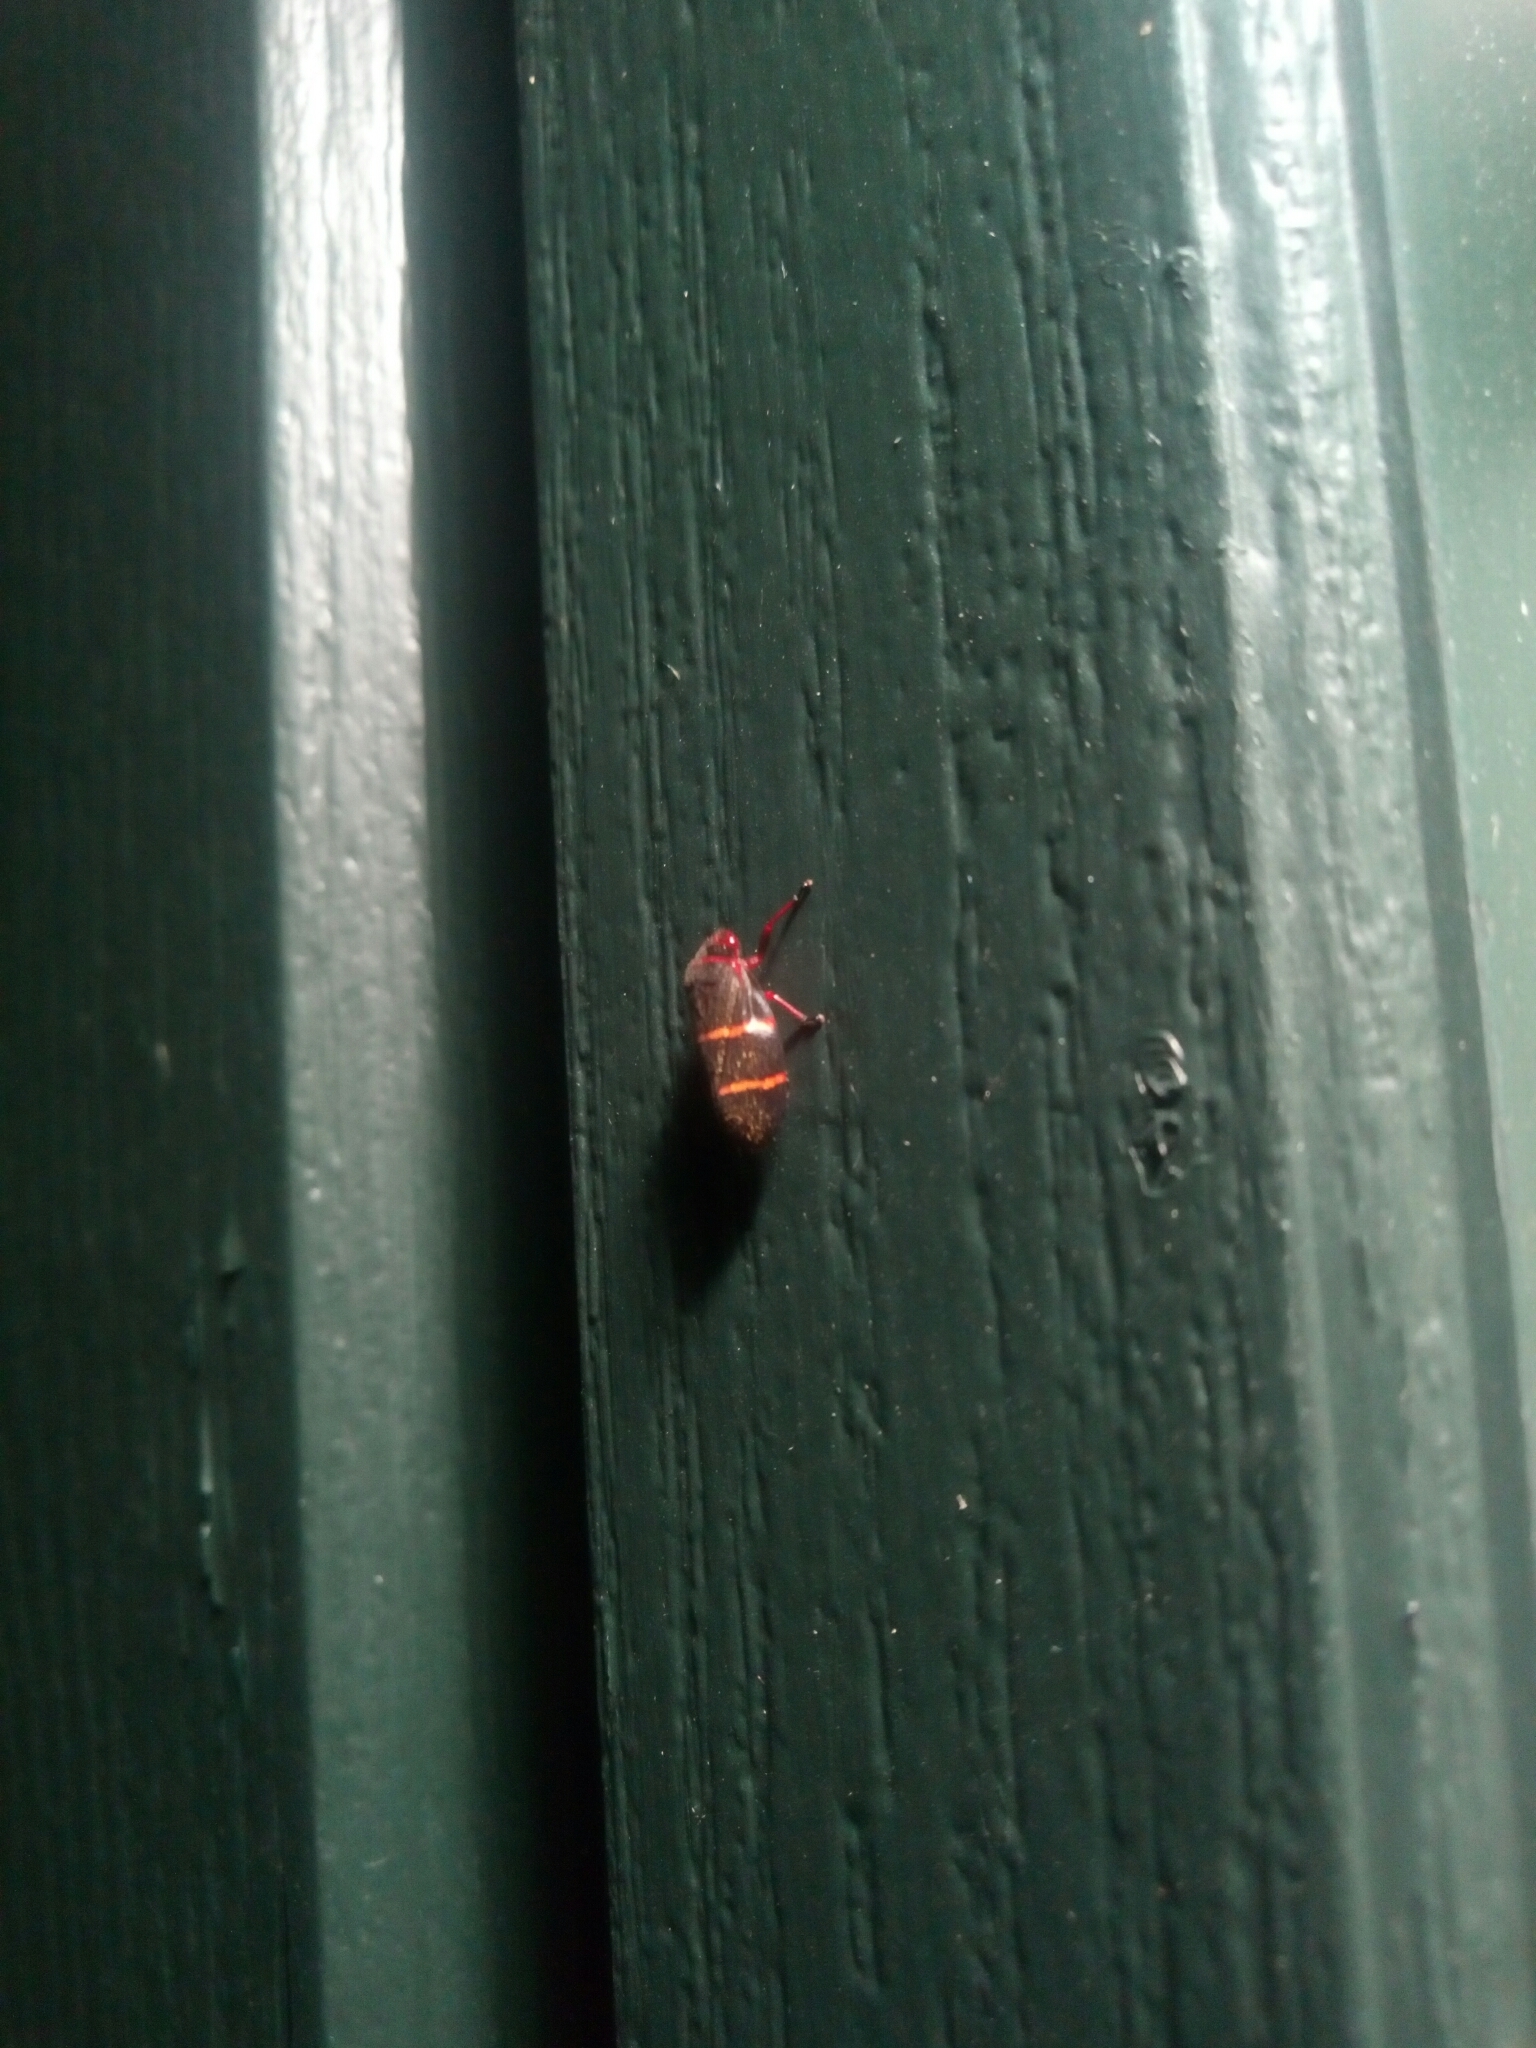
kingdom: Animalia
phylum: Arthropoda
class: Insecta
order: Hemiptera
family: Cercopidae
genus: Prosapia
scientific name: Prosapia bicincta
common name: Twolined spittlebug
